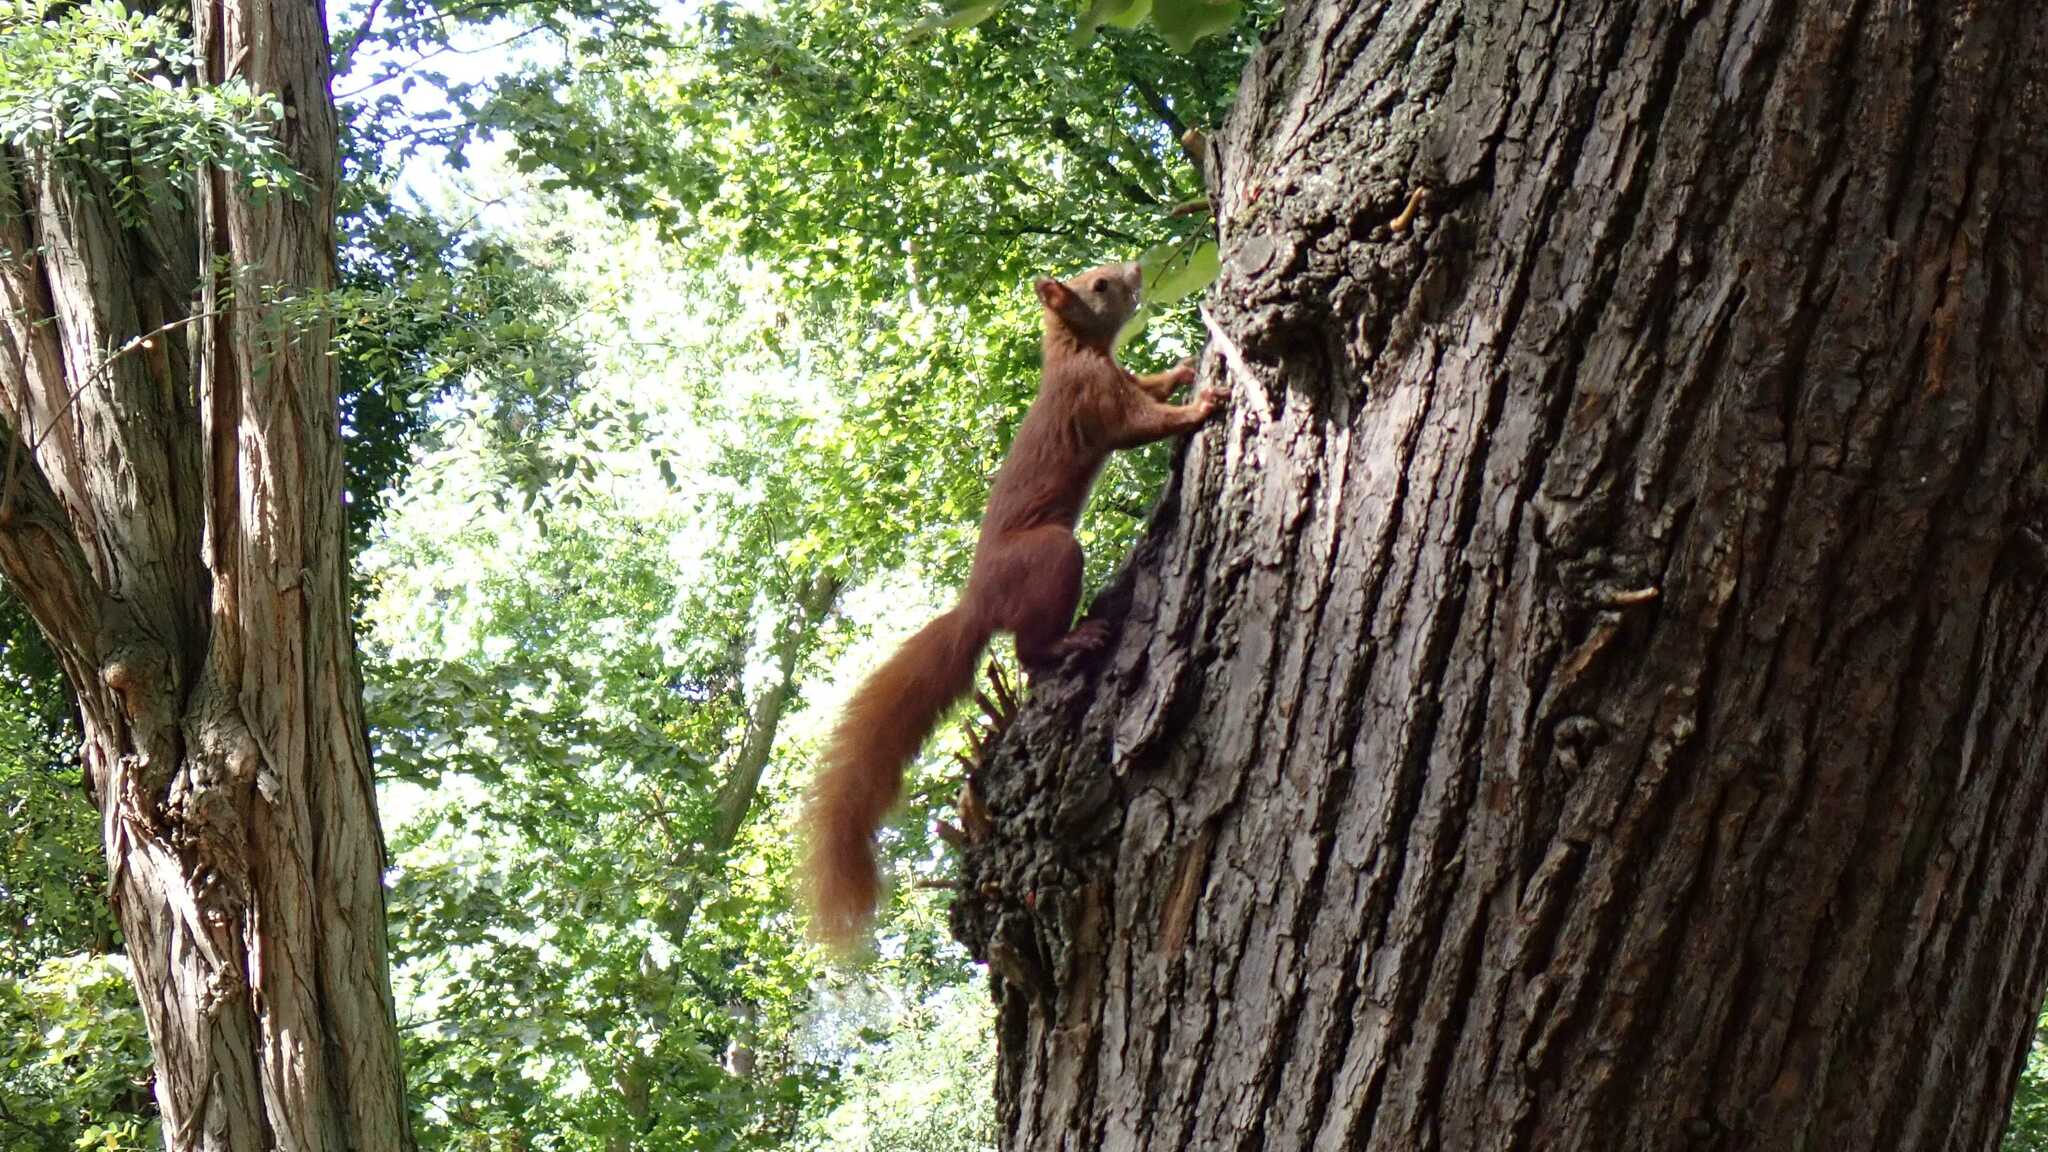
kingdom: Animalia
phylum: Chordata
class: Mammalia
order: Rodentia
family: Sciuridae
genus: Sciurus
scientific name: Sciurus vulgaris
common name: Eurasian red squirrel
